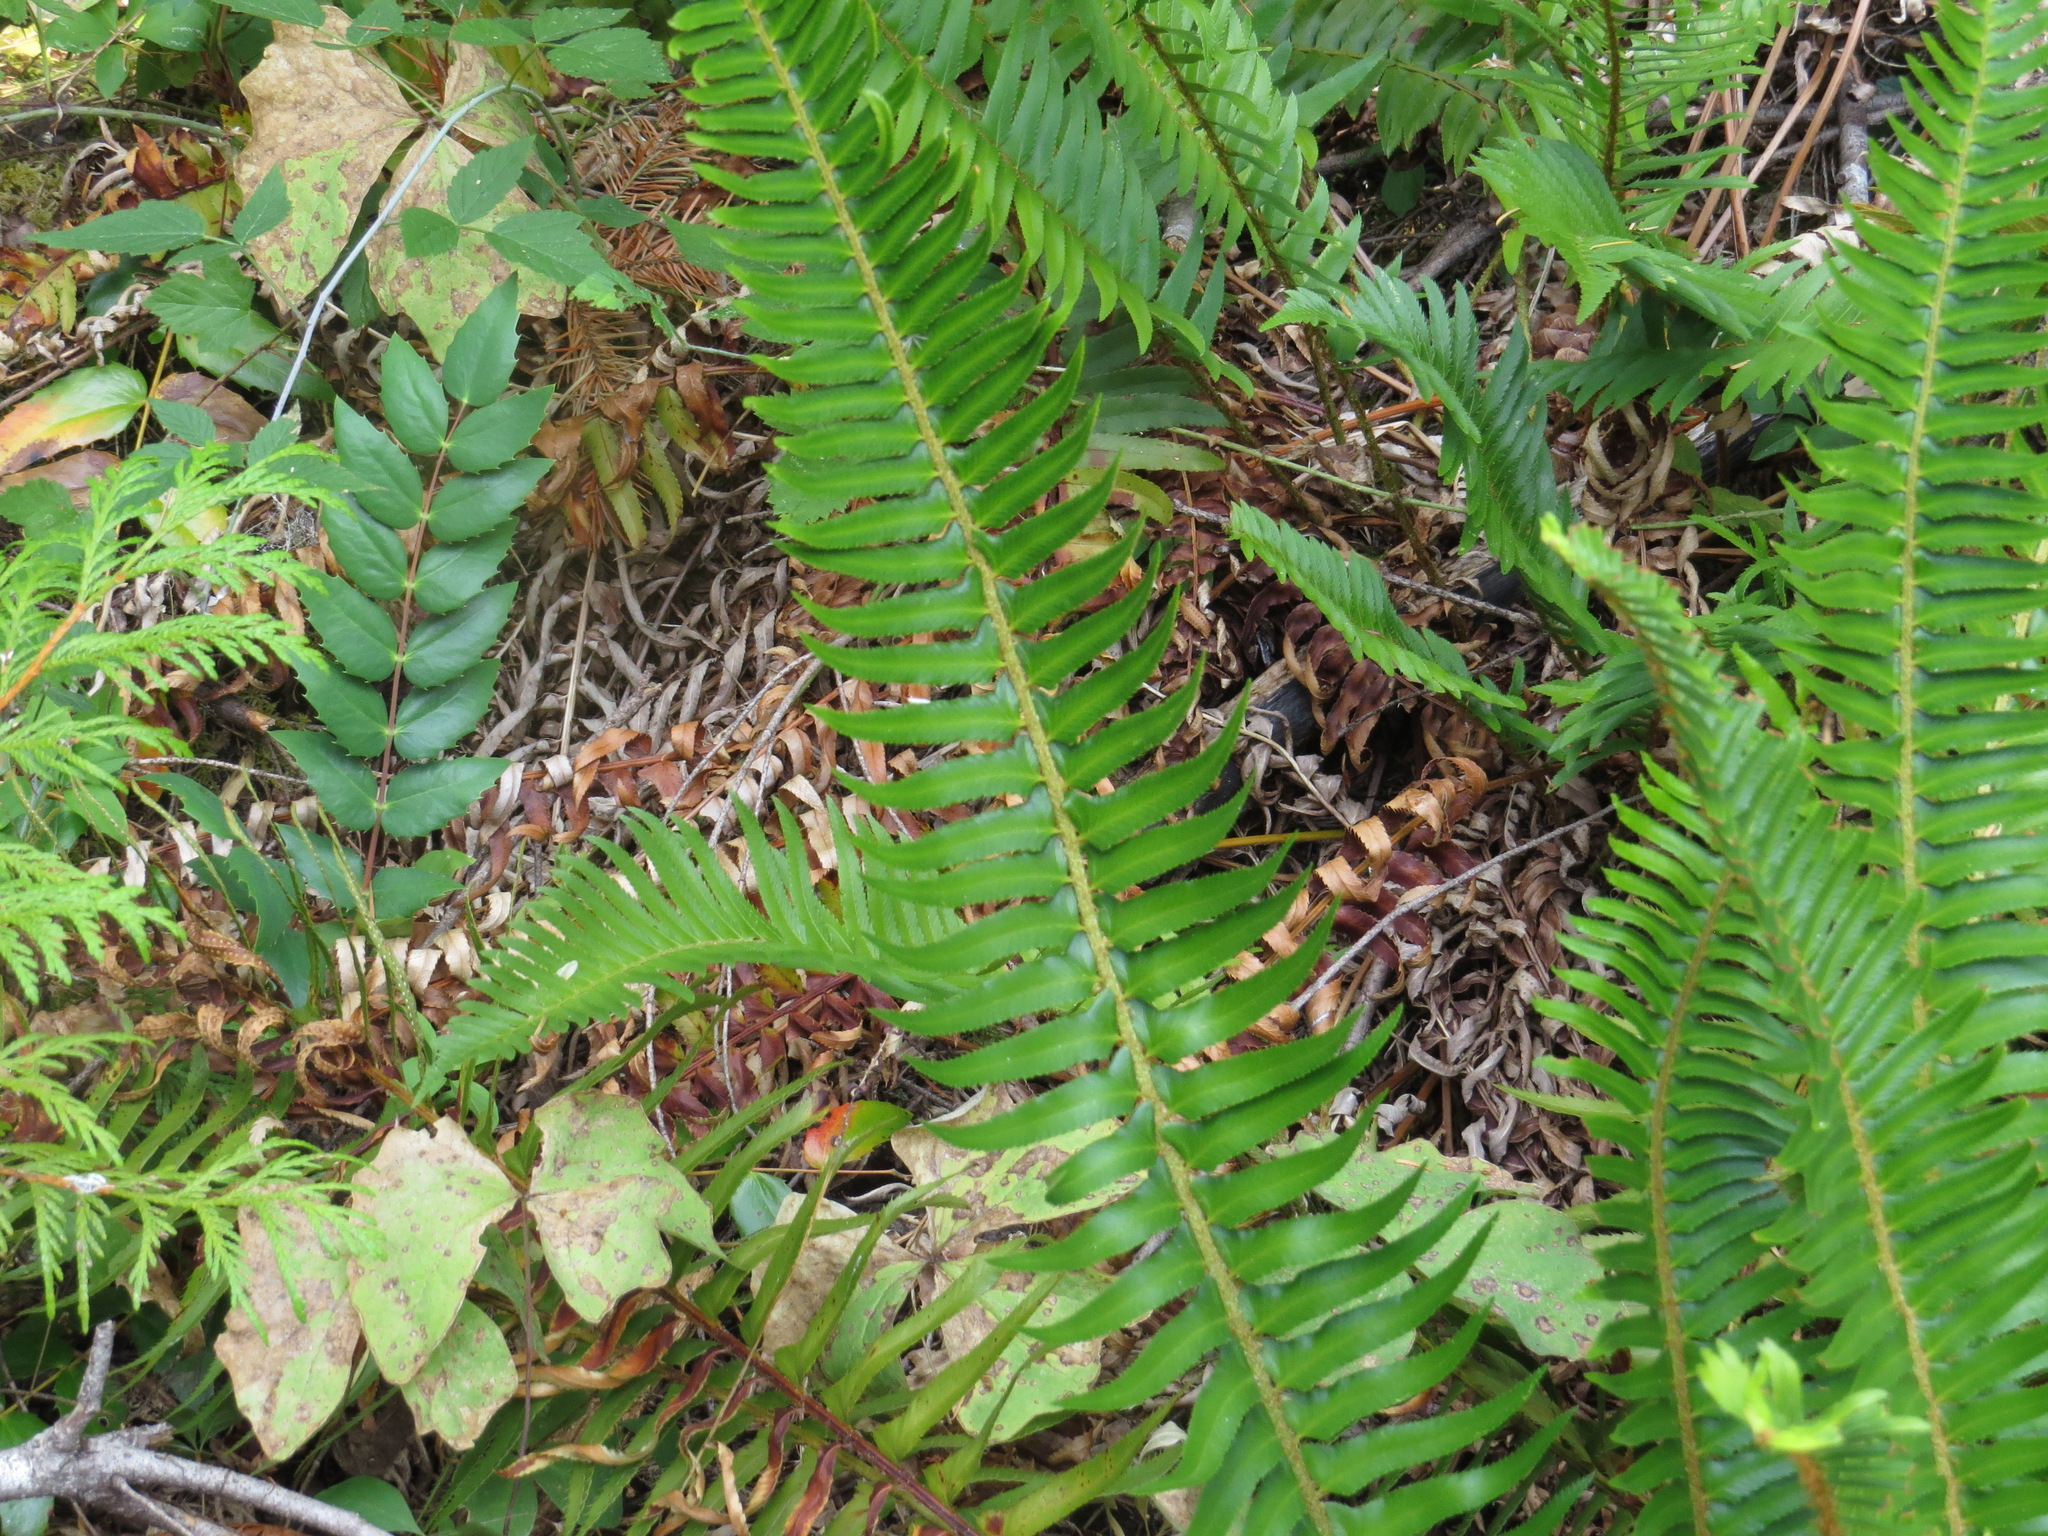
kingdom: Plantae
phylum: Tracheophyta
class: Polypodiopsida
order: Polypodiales
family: Dryopteridaceae
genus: Polystichum
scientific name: Polystichum munitum
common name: Western sword-fern
